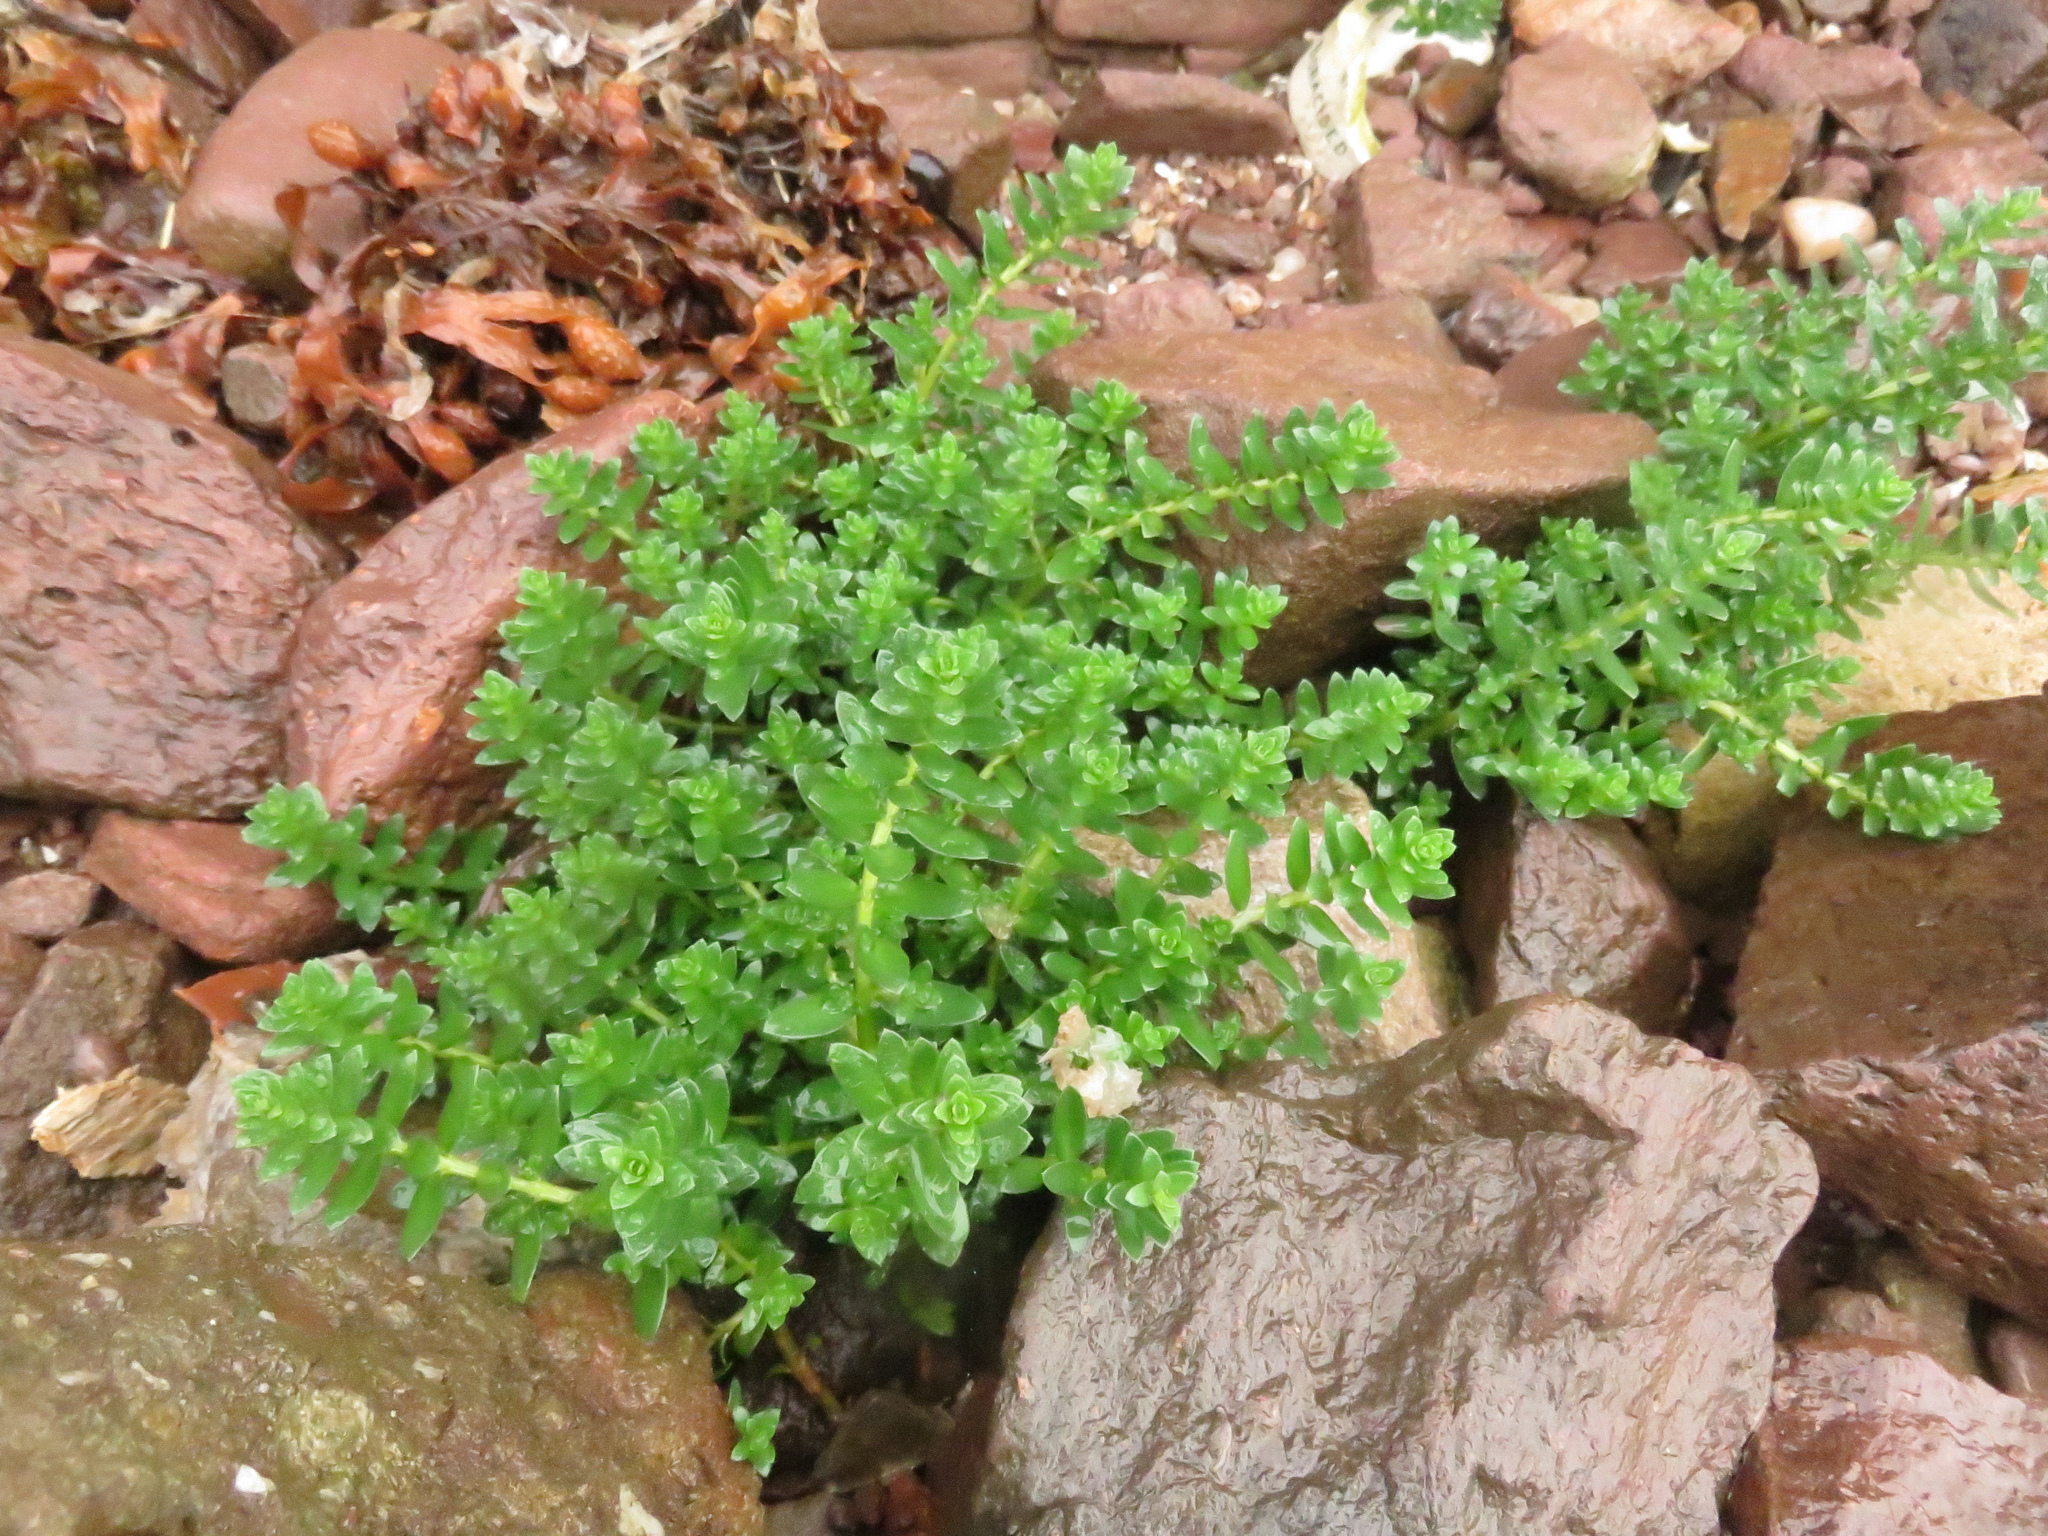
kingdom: Plantae
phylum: Tracheophyta
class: Magnoliopsida
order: Ericales
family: Primulaceae
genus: Lysimachia
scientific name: Lysimachia maritima
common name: Sea milkwort
